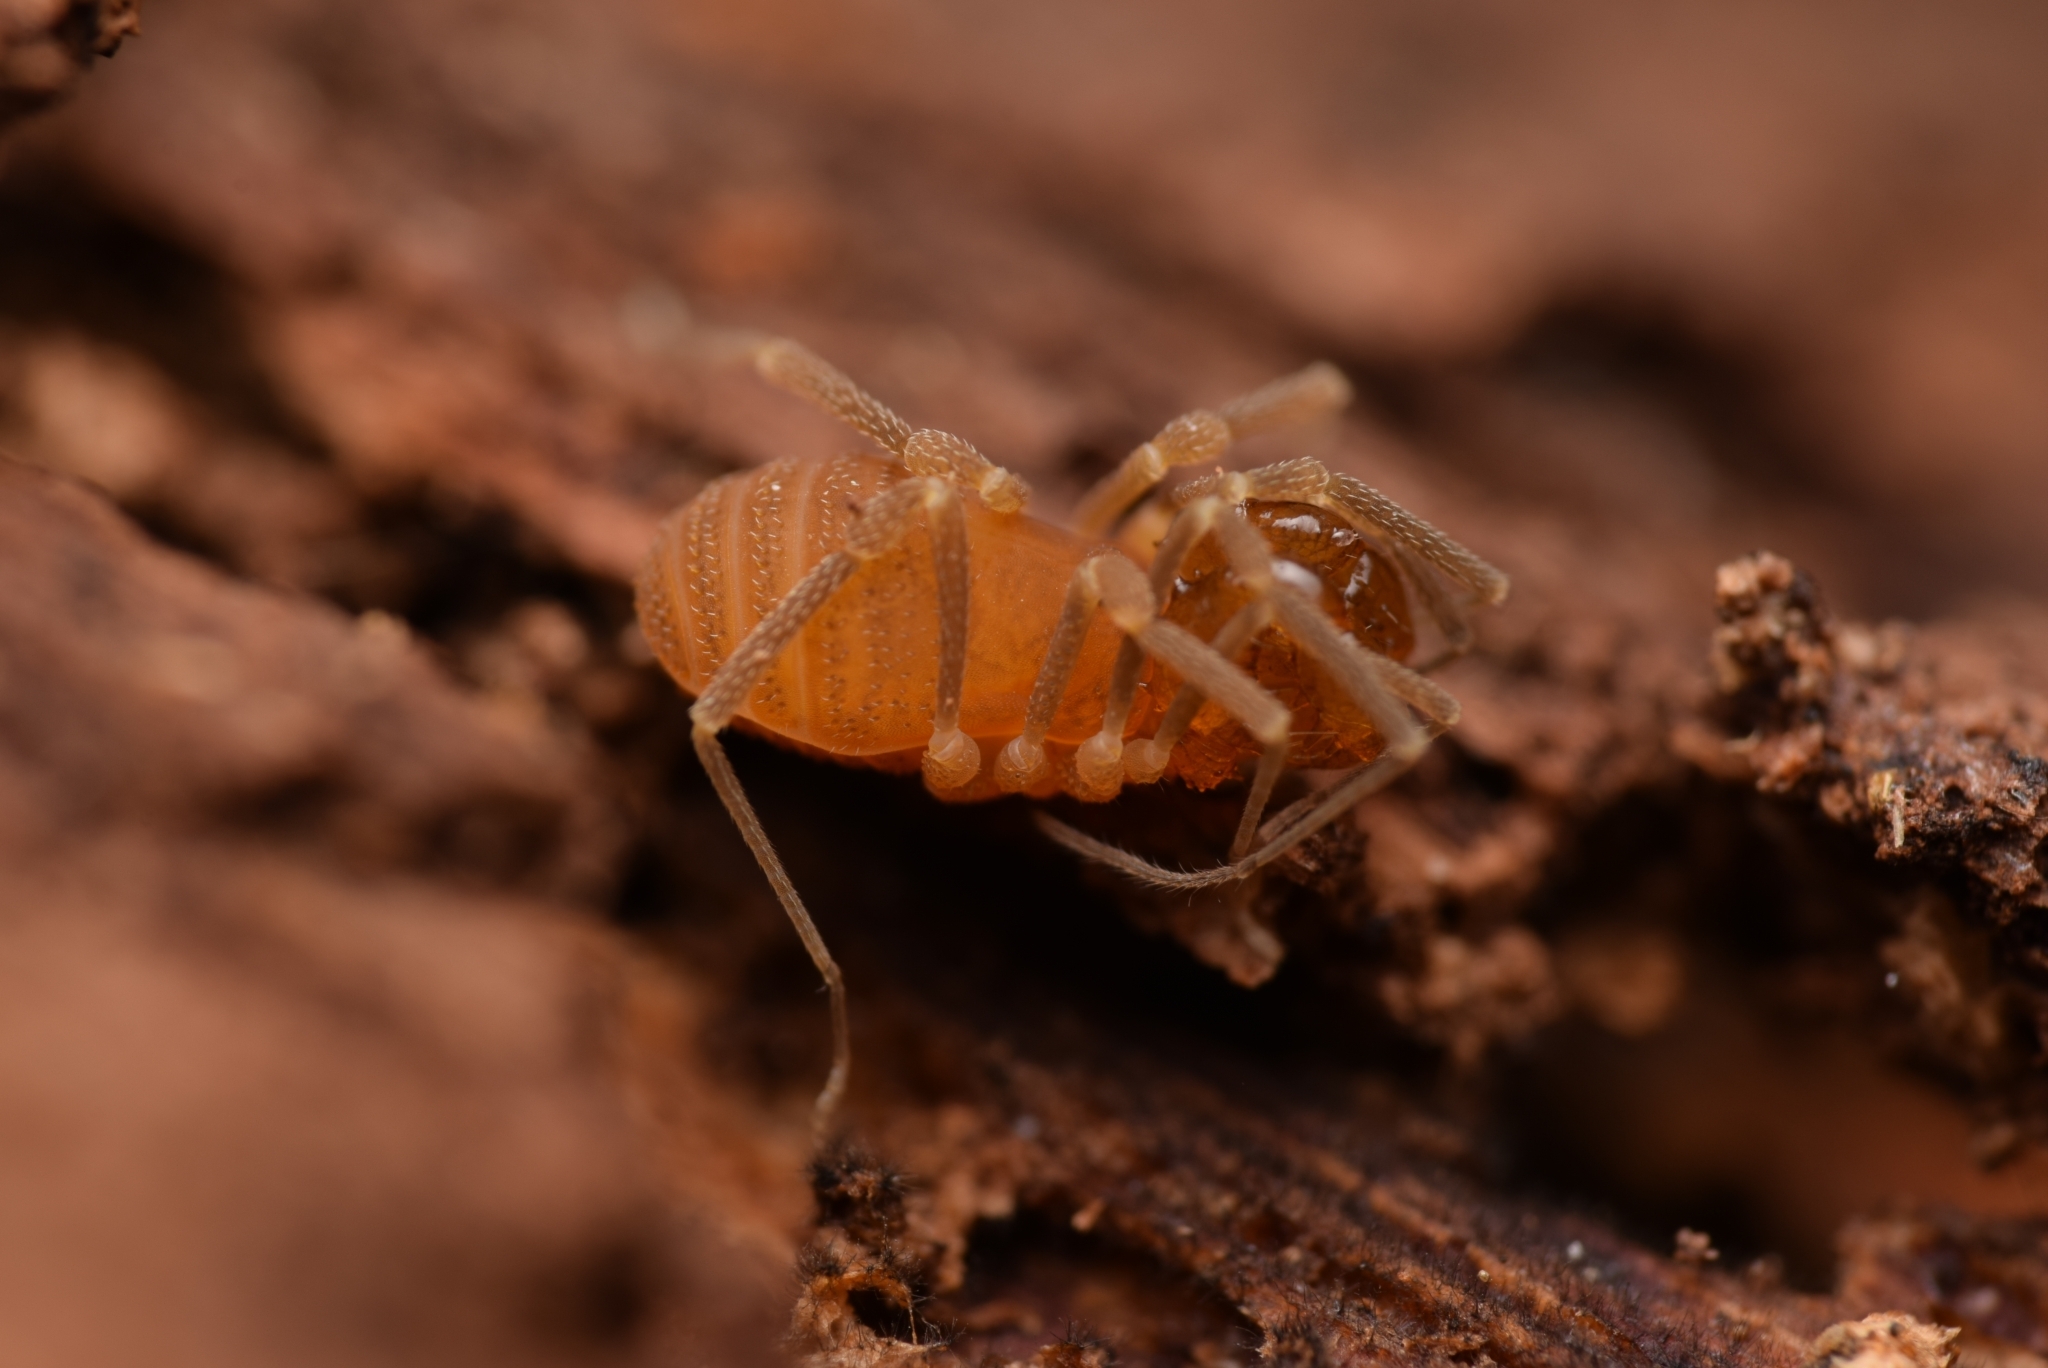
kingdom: Animalia
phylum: Arthropoda
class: Arachnida
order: Opiliones
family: Cladonychiidae
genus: Holoscotolemon
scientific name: Holoscotolemon querilhaci
